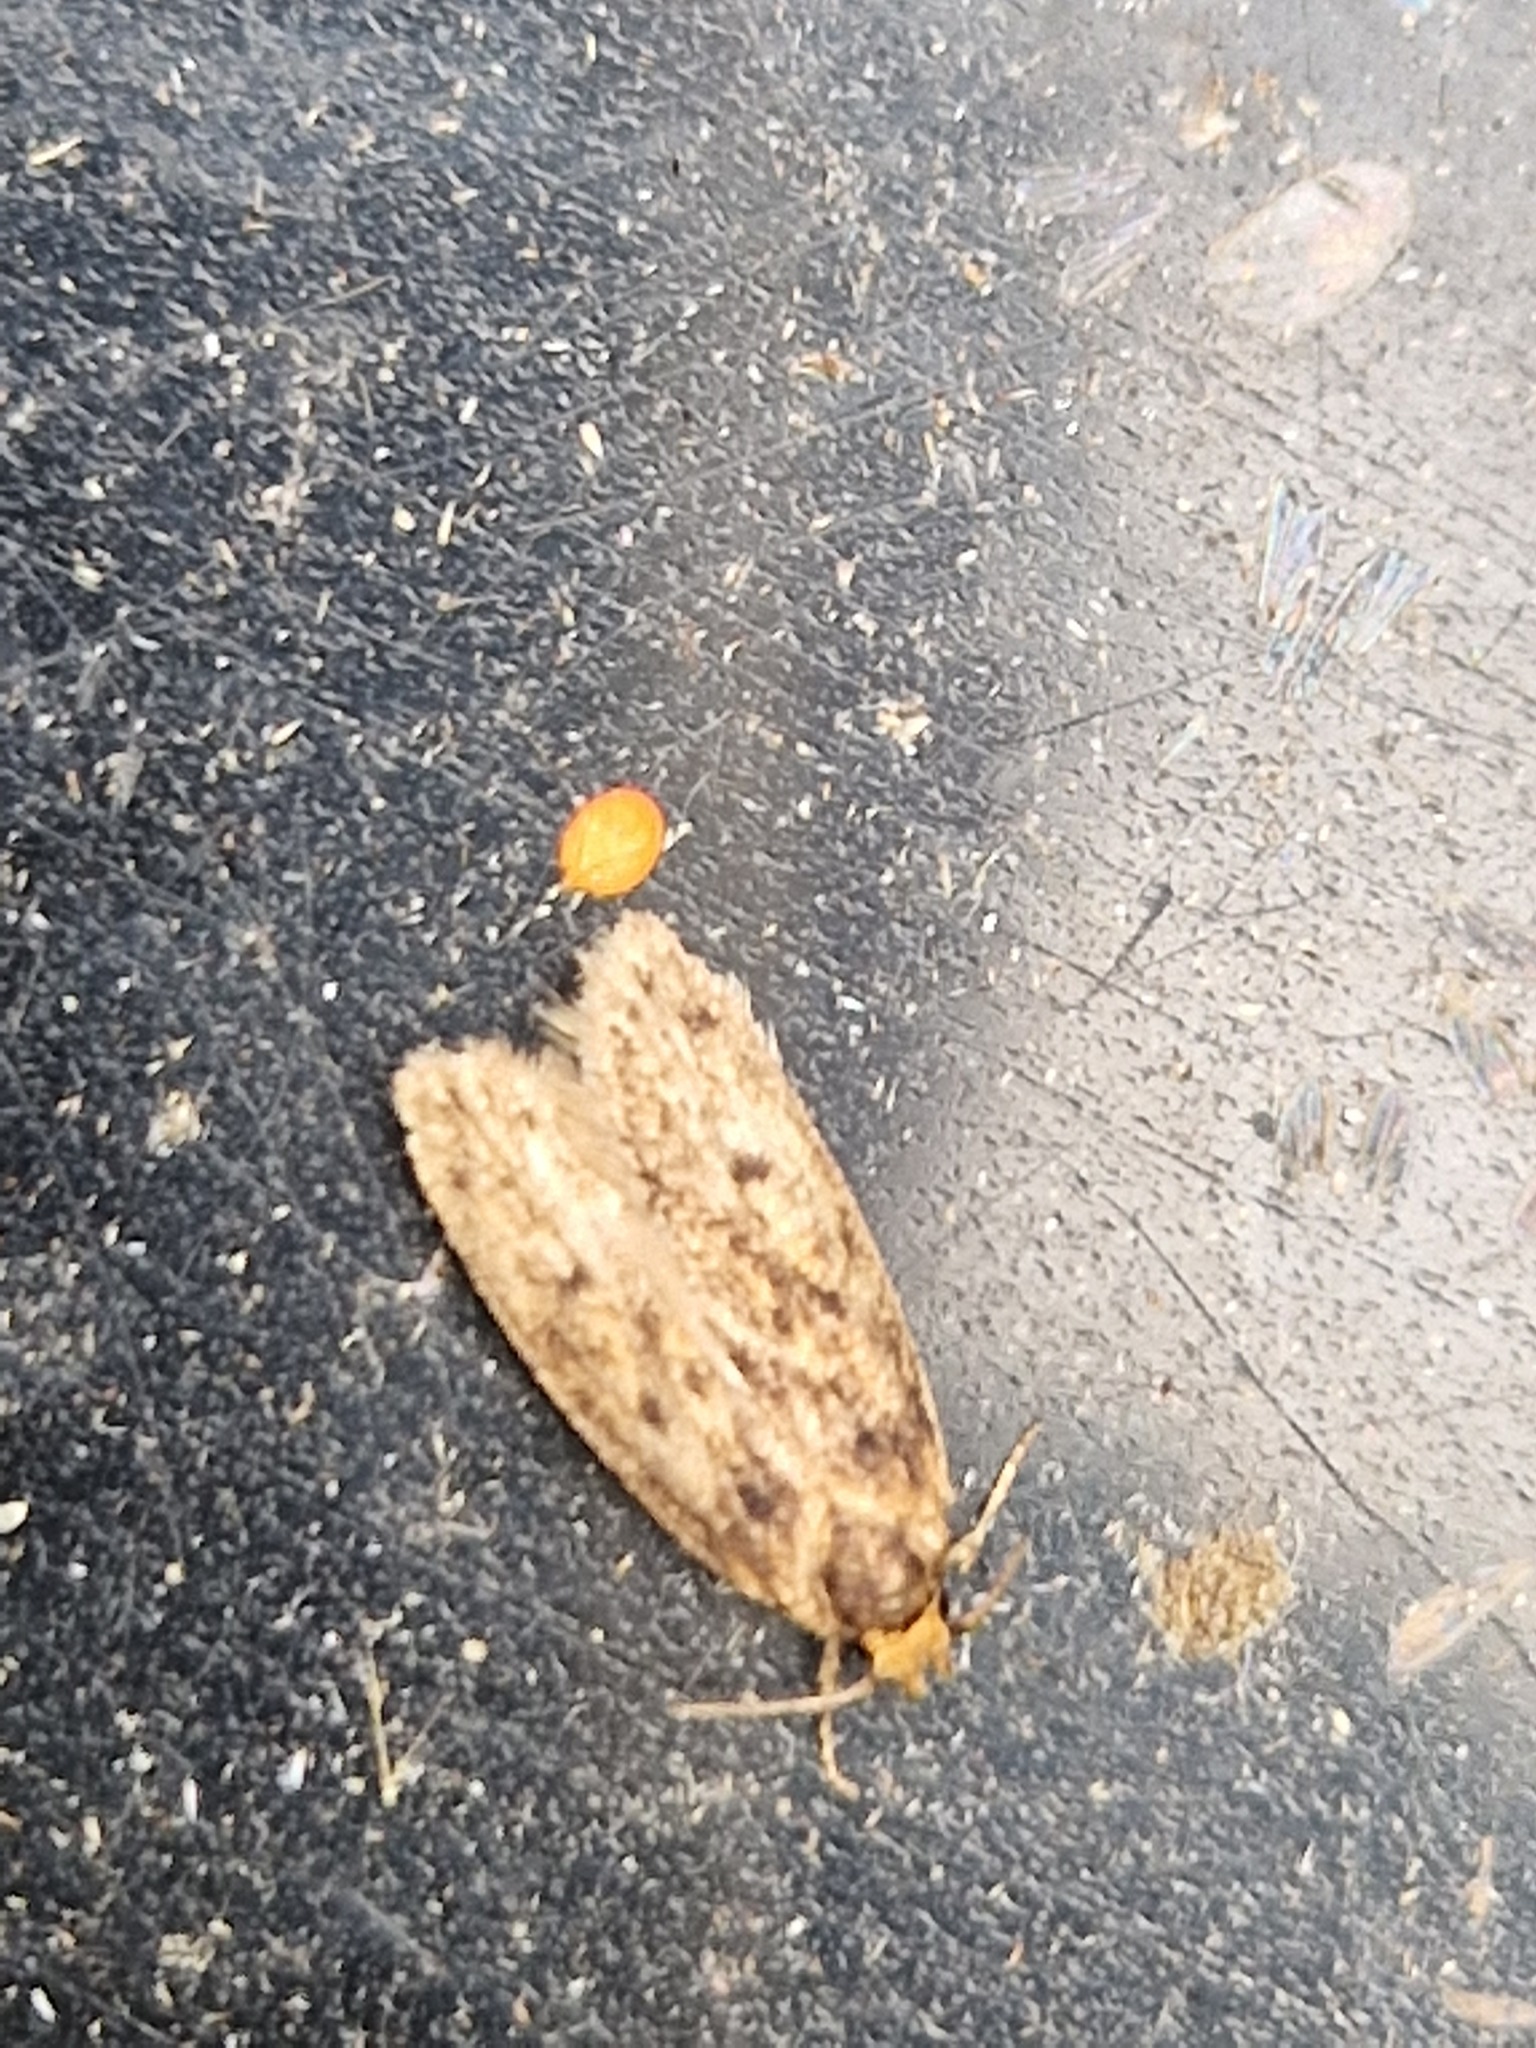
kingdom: Animalia
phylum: Arthropoda
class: Insecta
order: Lepidoptera
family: Oecophoridae
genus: Hofmannophila
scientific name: Hofmannophila pseudospretella
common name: Brown house moth
